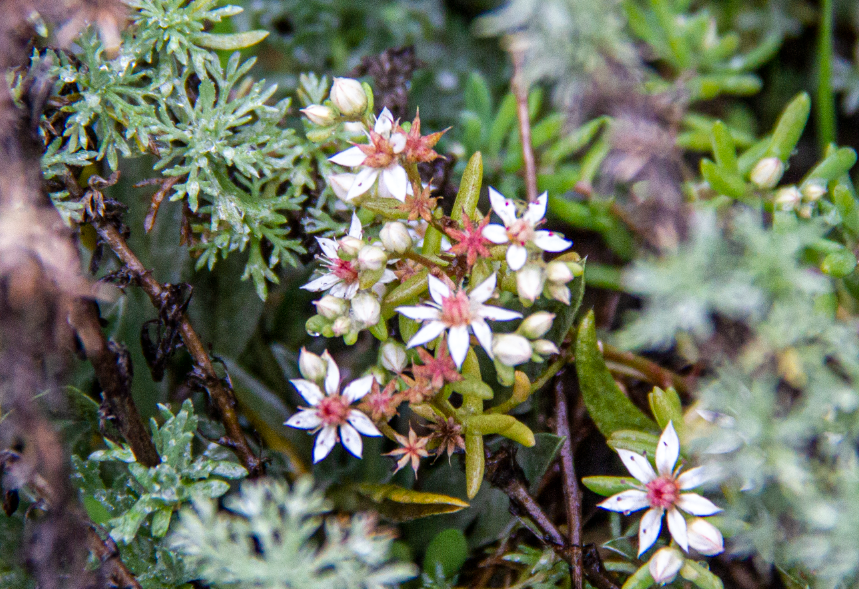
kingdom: Plantae
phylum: Tracheophyta
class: Magnoliopsida
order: Saxifragales
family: Crassulaceae
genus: Sedum
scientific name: Sedum hispanicum
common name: Spanish stonecrop
